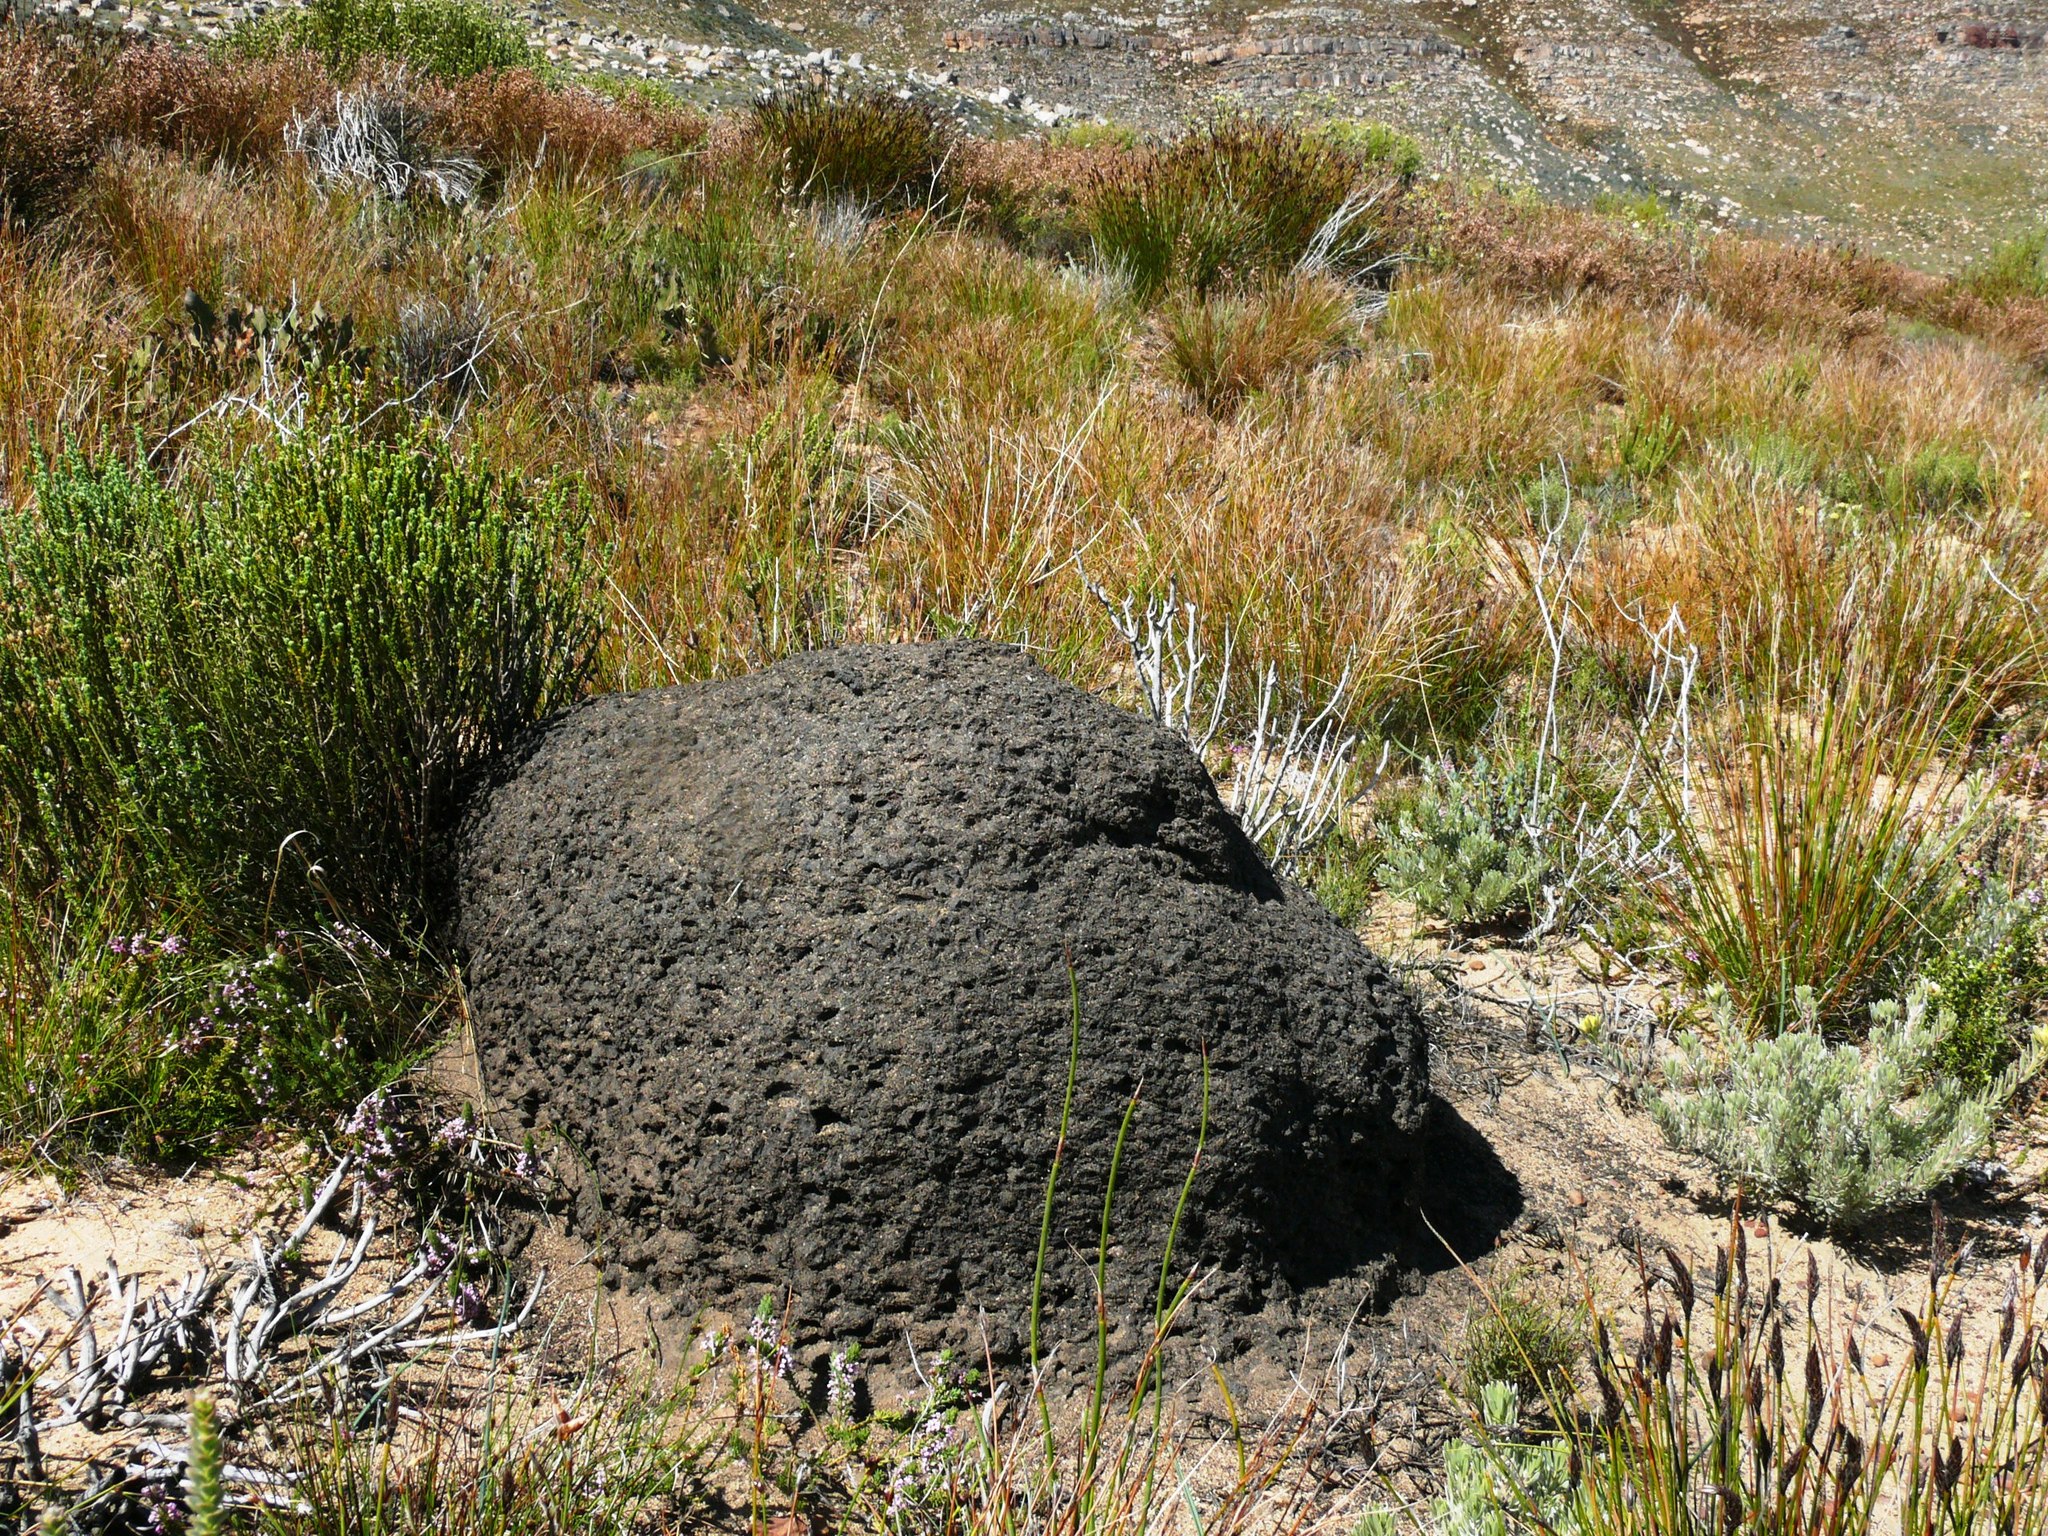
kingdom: Animalia
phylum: Arthropoda
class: Insecta
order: Blattodea
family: Termitidae
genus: Amitermes
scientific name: Amitermes hastatus
